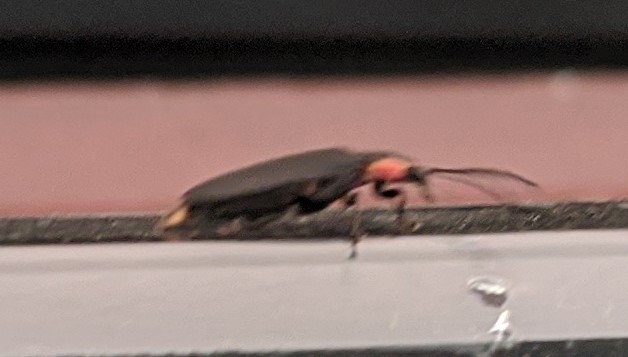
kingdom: Animalia
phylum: Arthropoda
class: Insecta
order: Coleoptera
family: Lampyridae
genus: Lucidota
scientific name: Lucidota atra
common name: Black firefly
